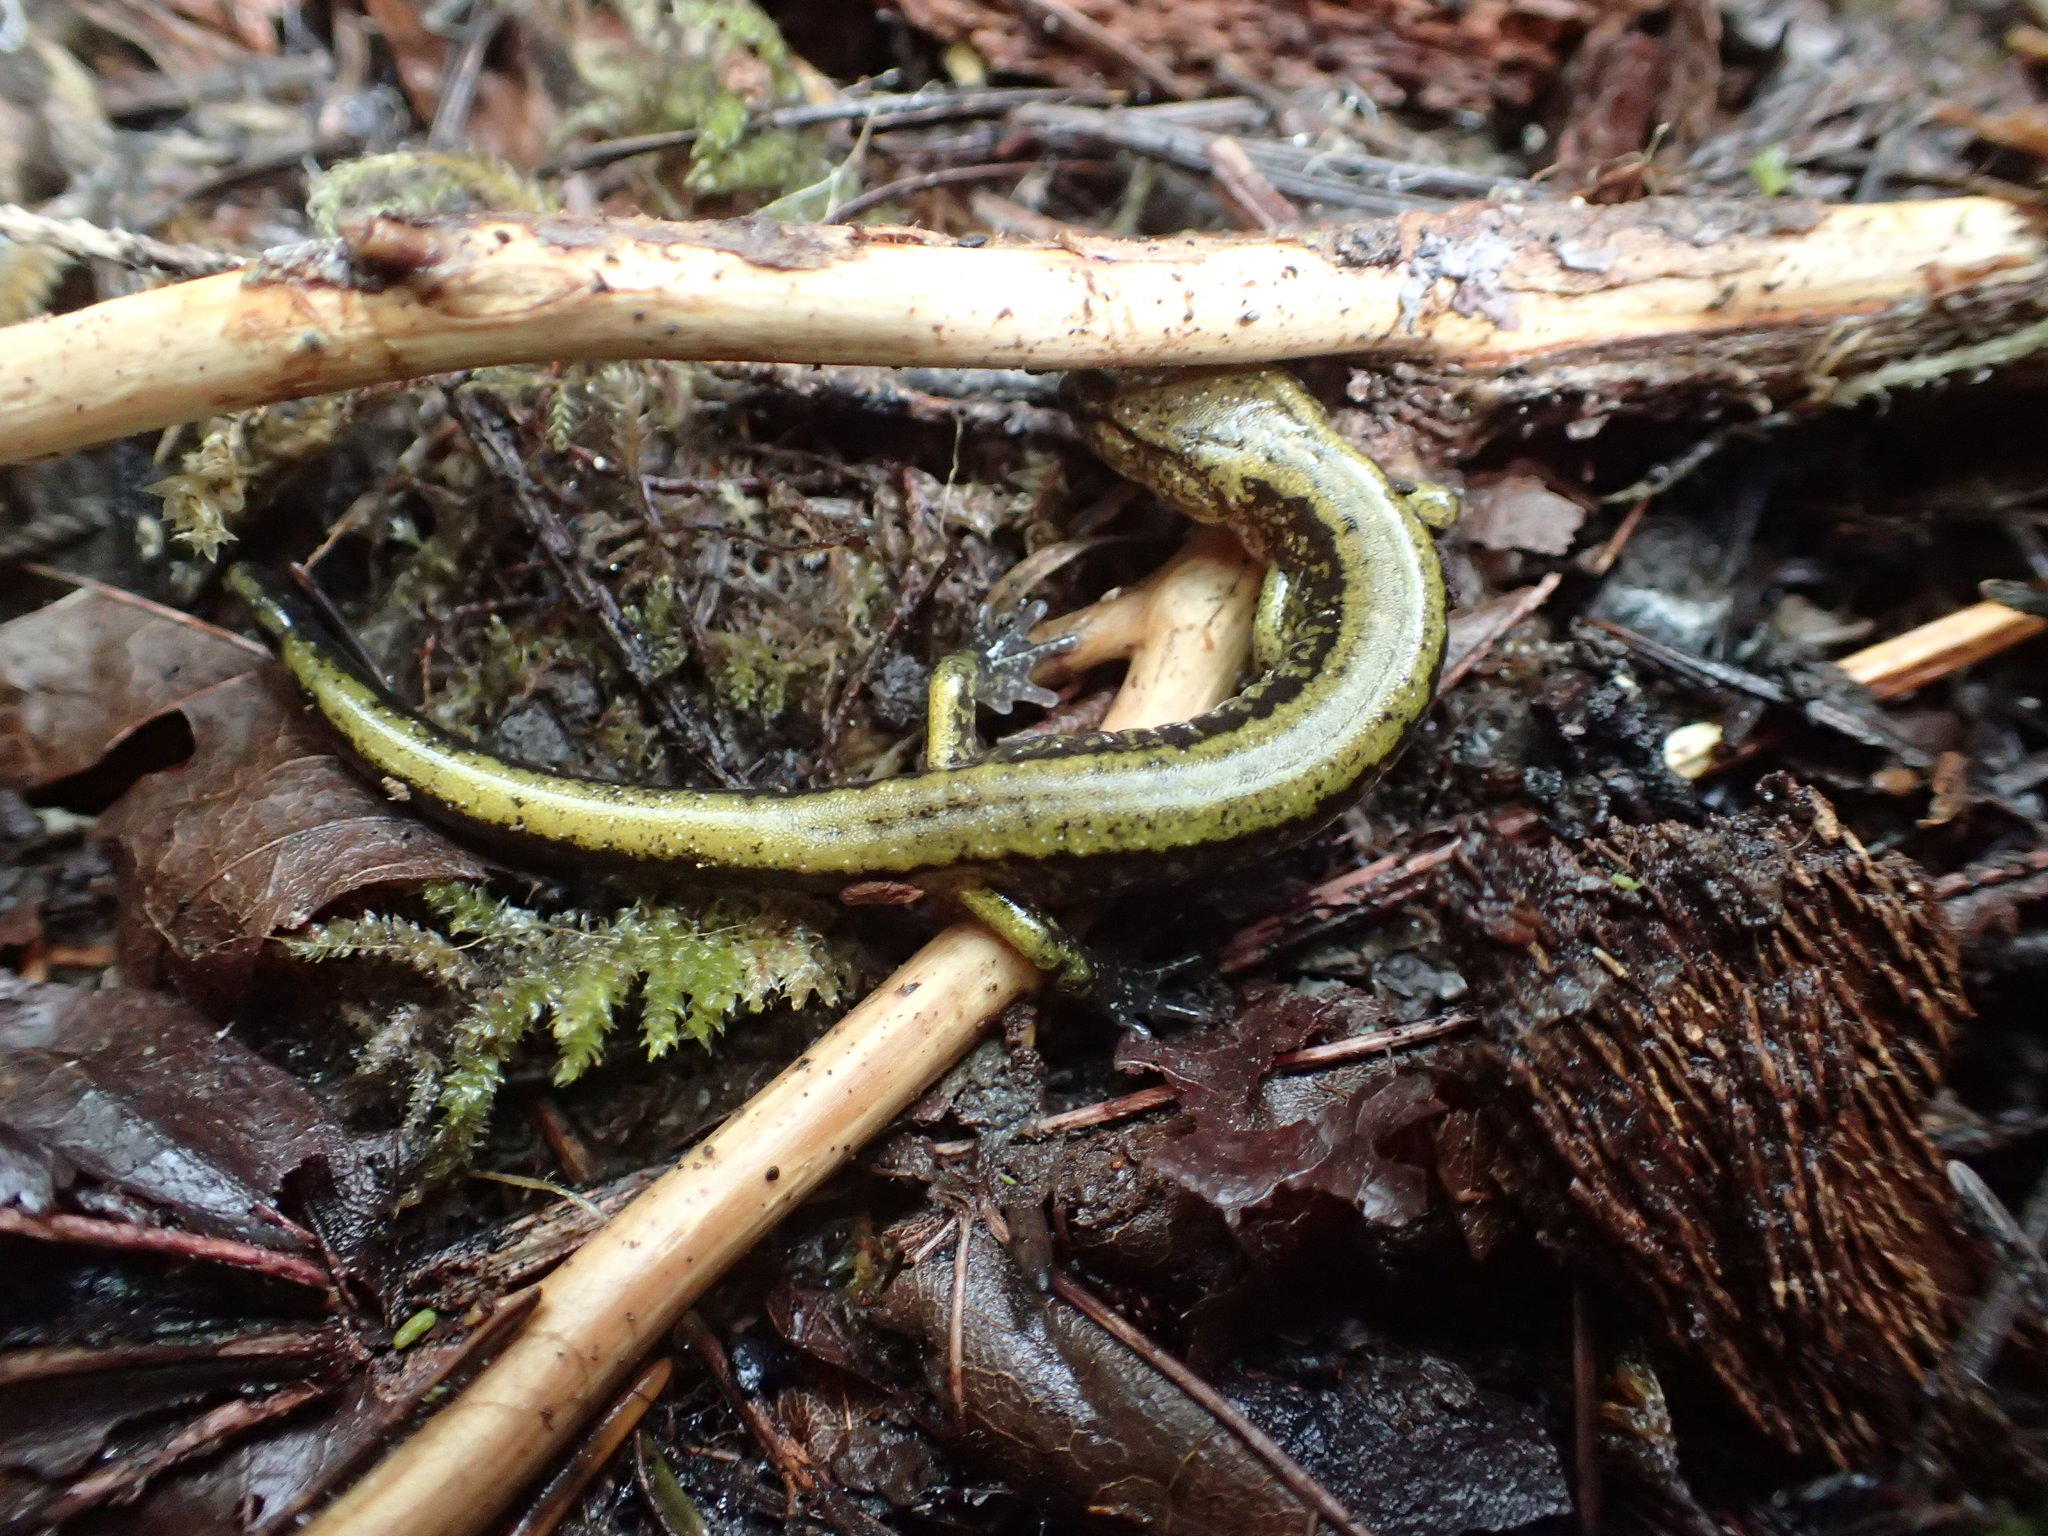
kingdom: Animalia
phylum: Chordata
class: Amphibia
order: Caudata
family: Plethodontidae
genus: Plethodon
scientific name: Plethodon dunni
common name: Dunn's salamander
